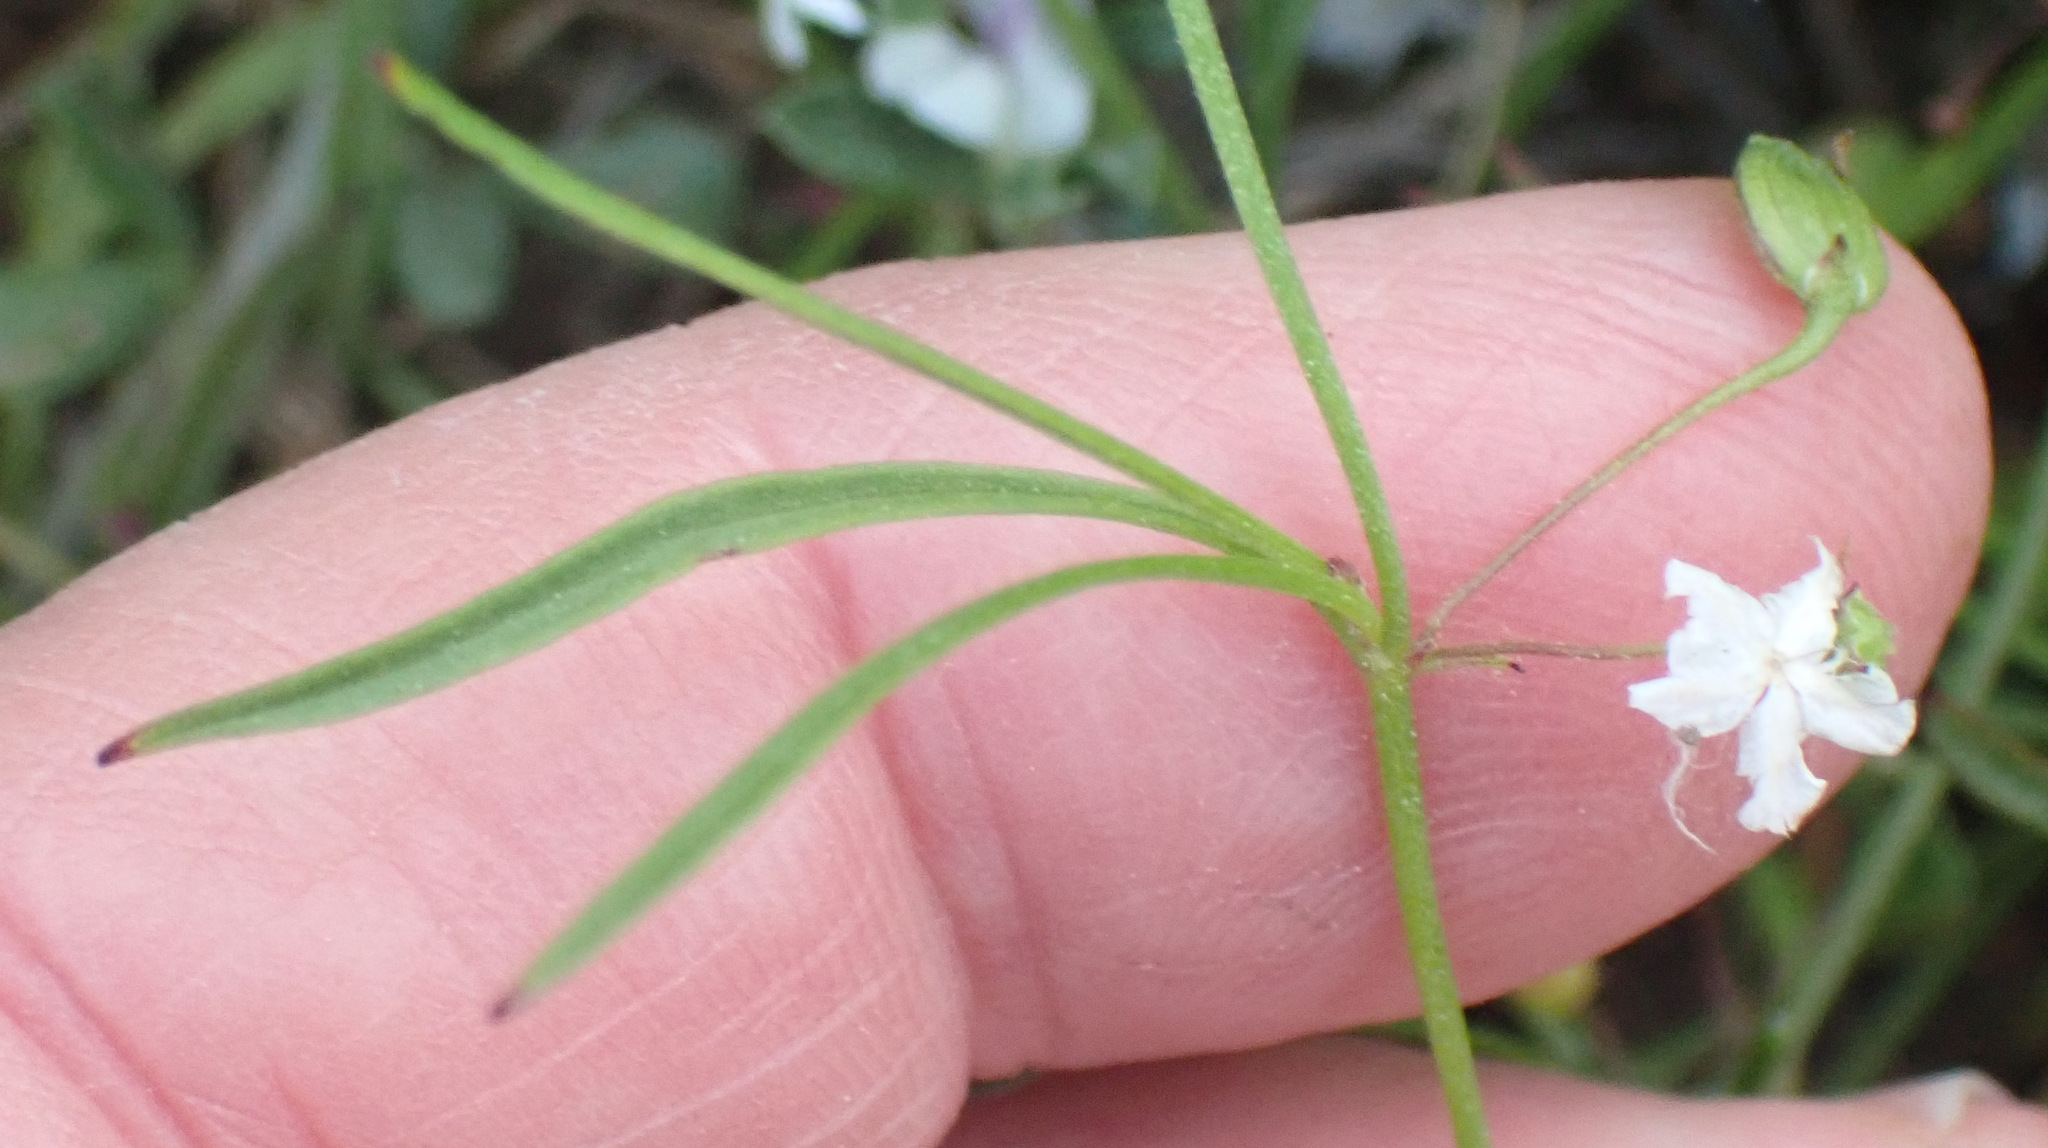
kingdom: Plantae
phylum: Tracheophyta
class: Magnoliopsida
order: Apiales
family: Apiaceae
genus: Centella
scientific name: Centella affinis
